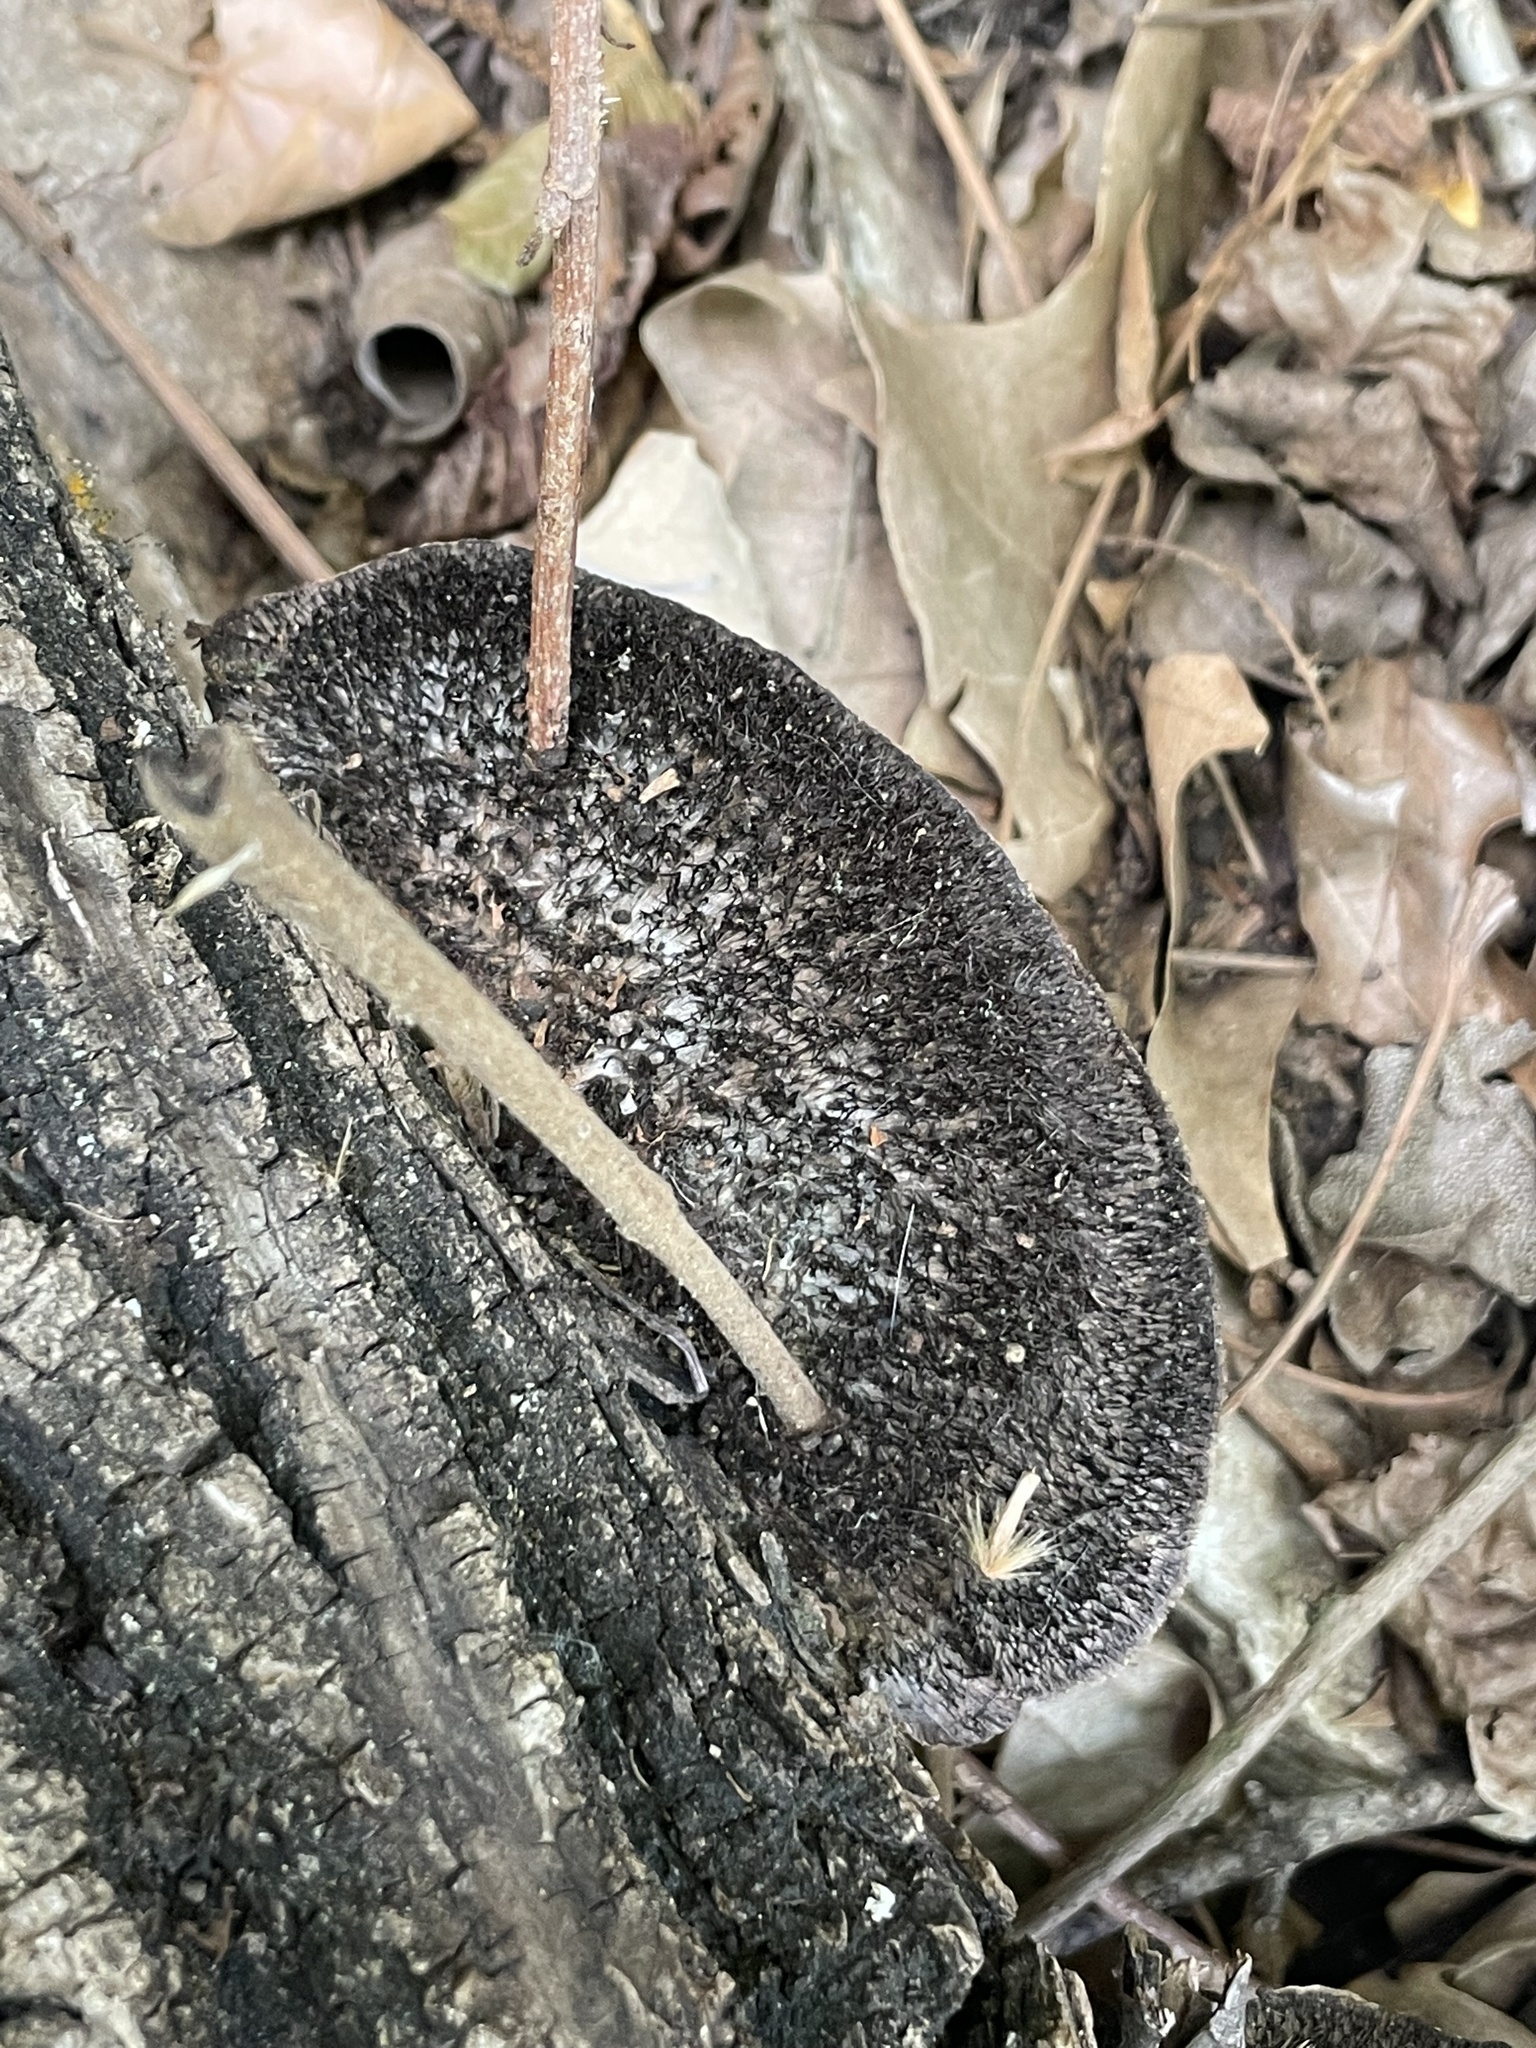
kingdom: Fungi
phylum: Basidiomycota
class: Agaricomycetes
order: Polyporales
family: Cerrenaceae
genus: Cerrena
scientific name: Cerrena hydnoides
